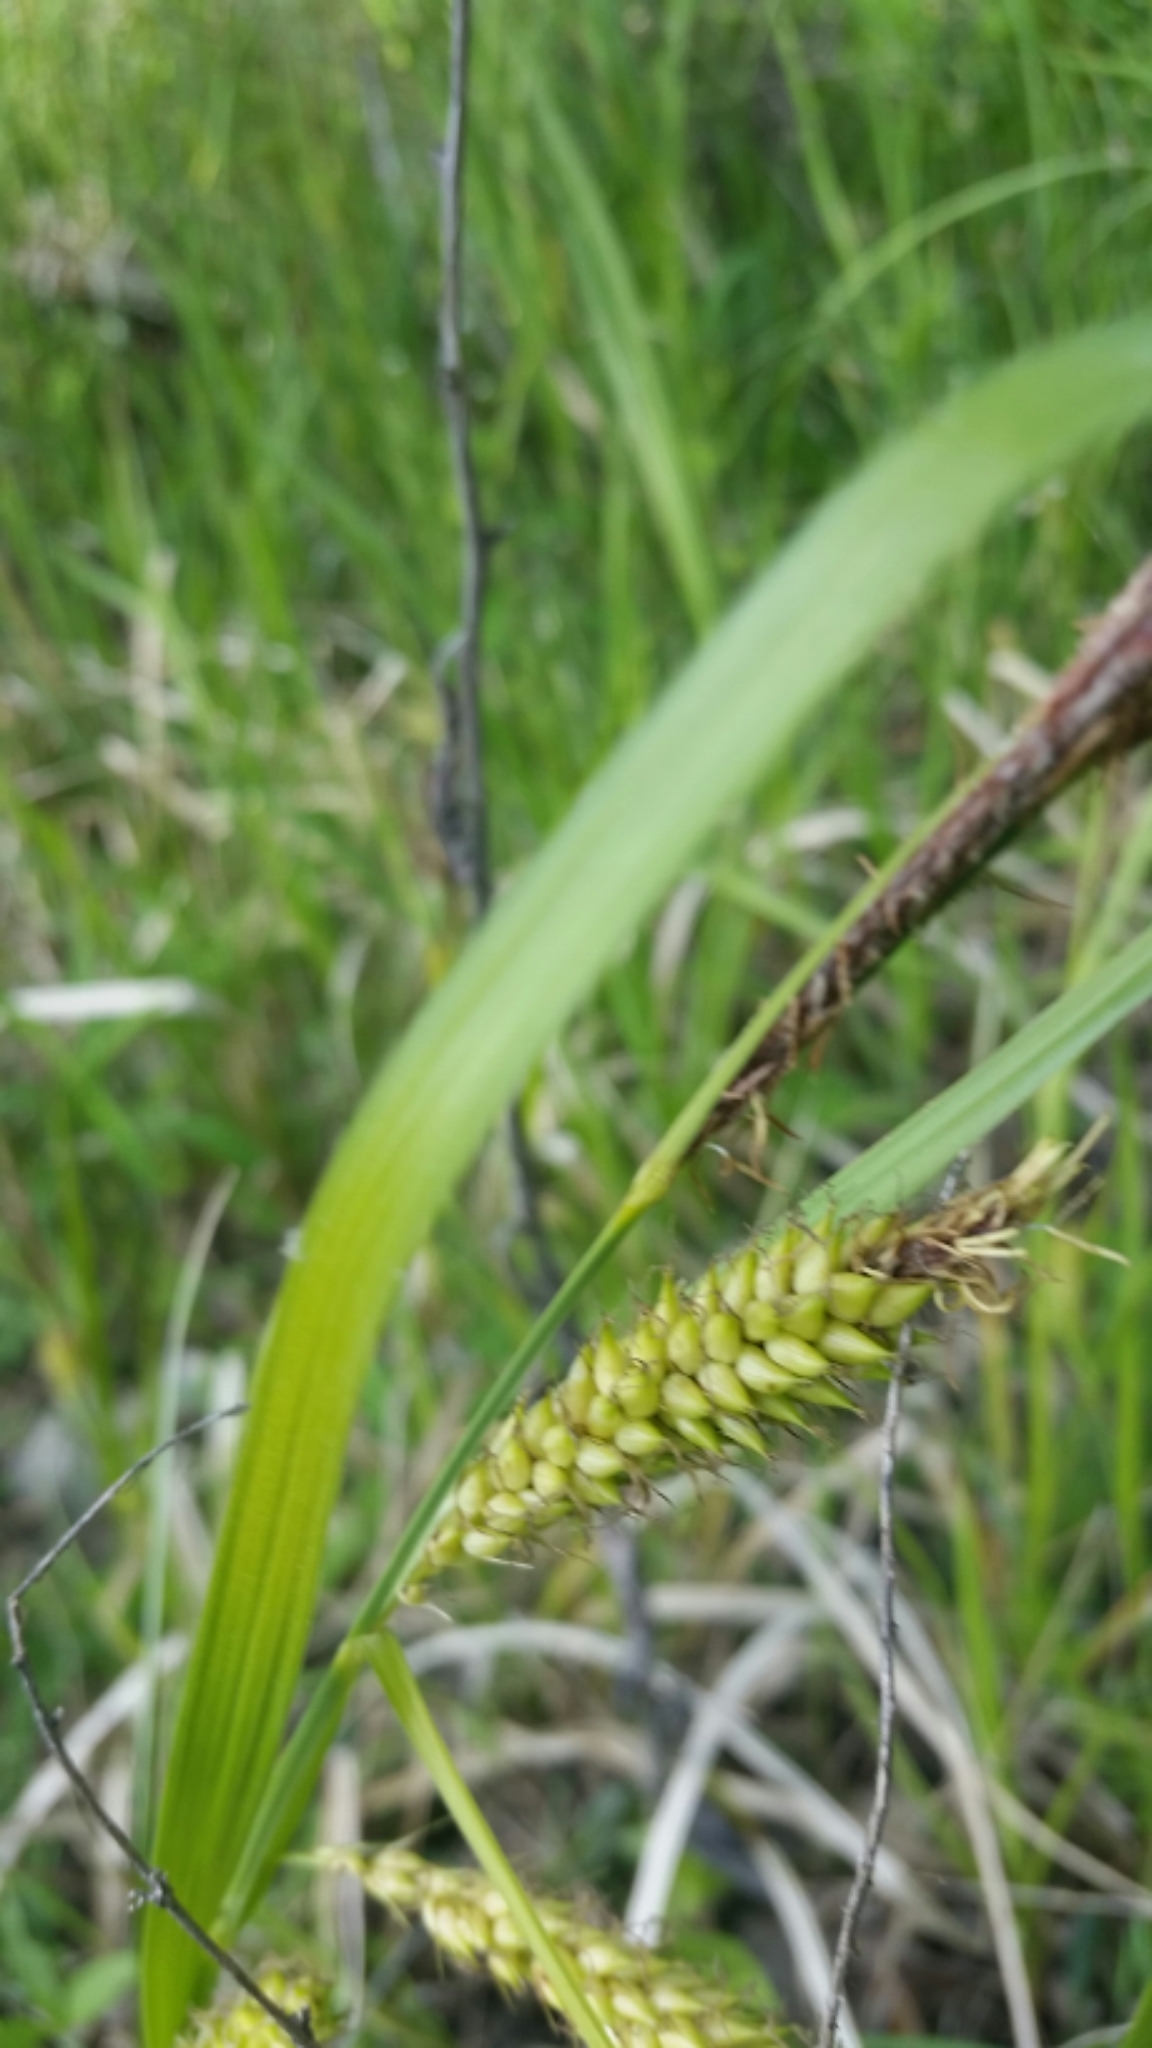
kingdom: Plantae
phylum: Tracheophyta
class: Liliopsida
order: Poales
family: Cyperaceae
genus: Carex
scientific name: Carex lacustris
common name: Common lake sedge
